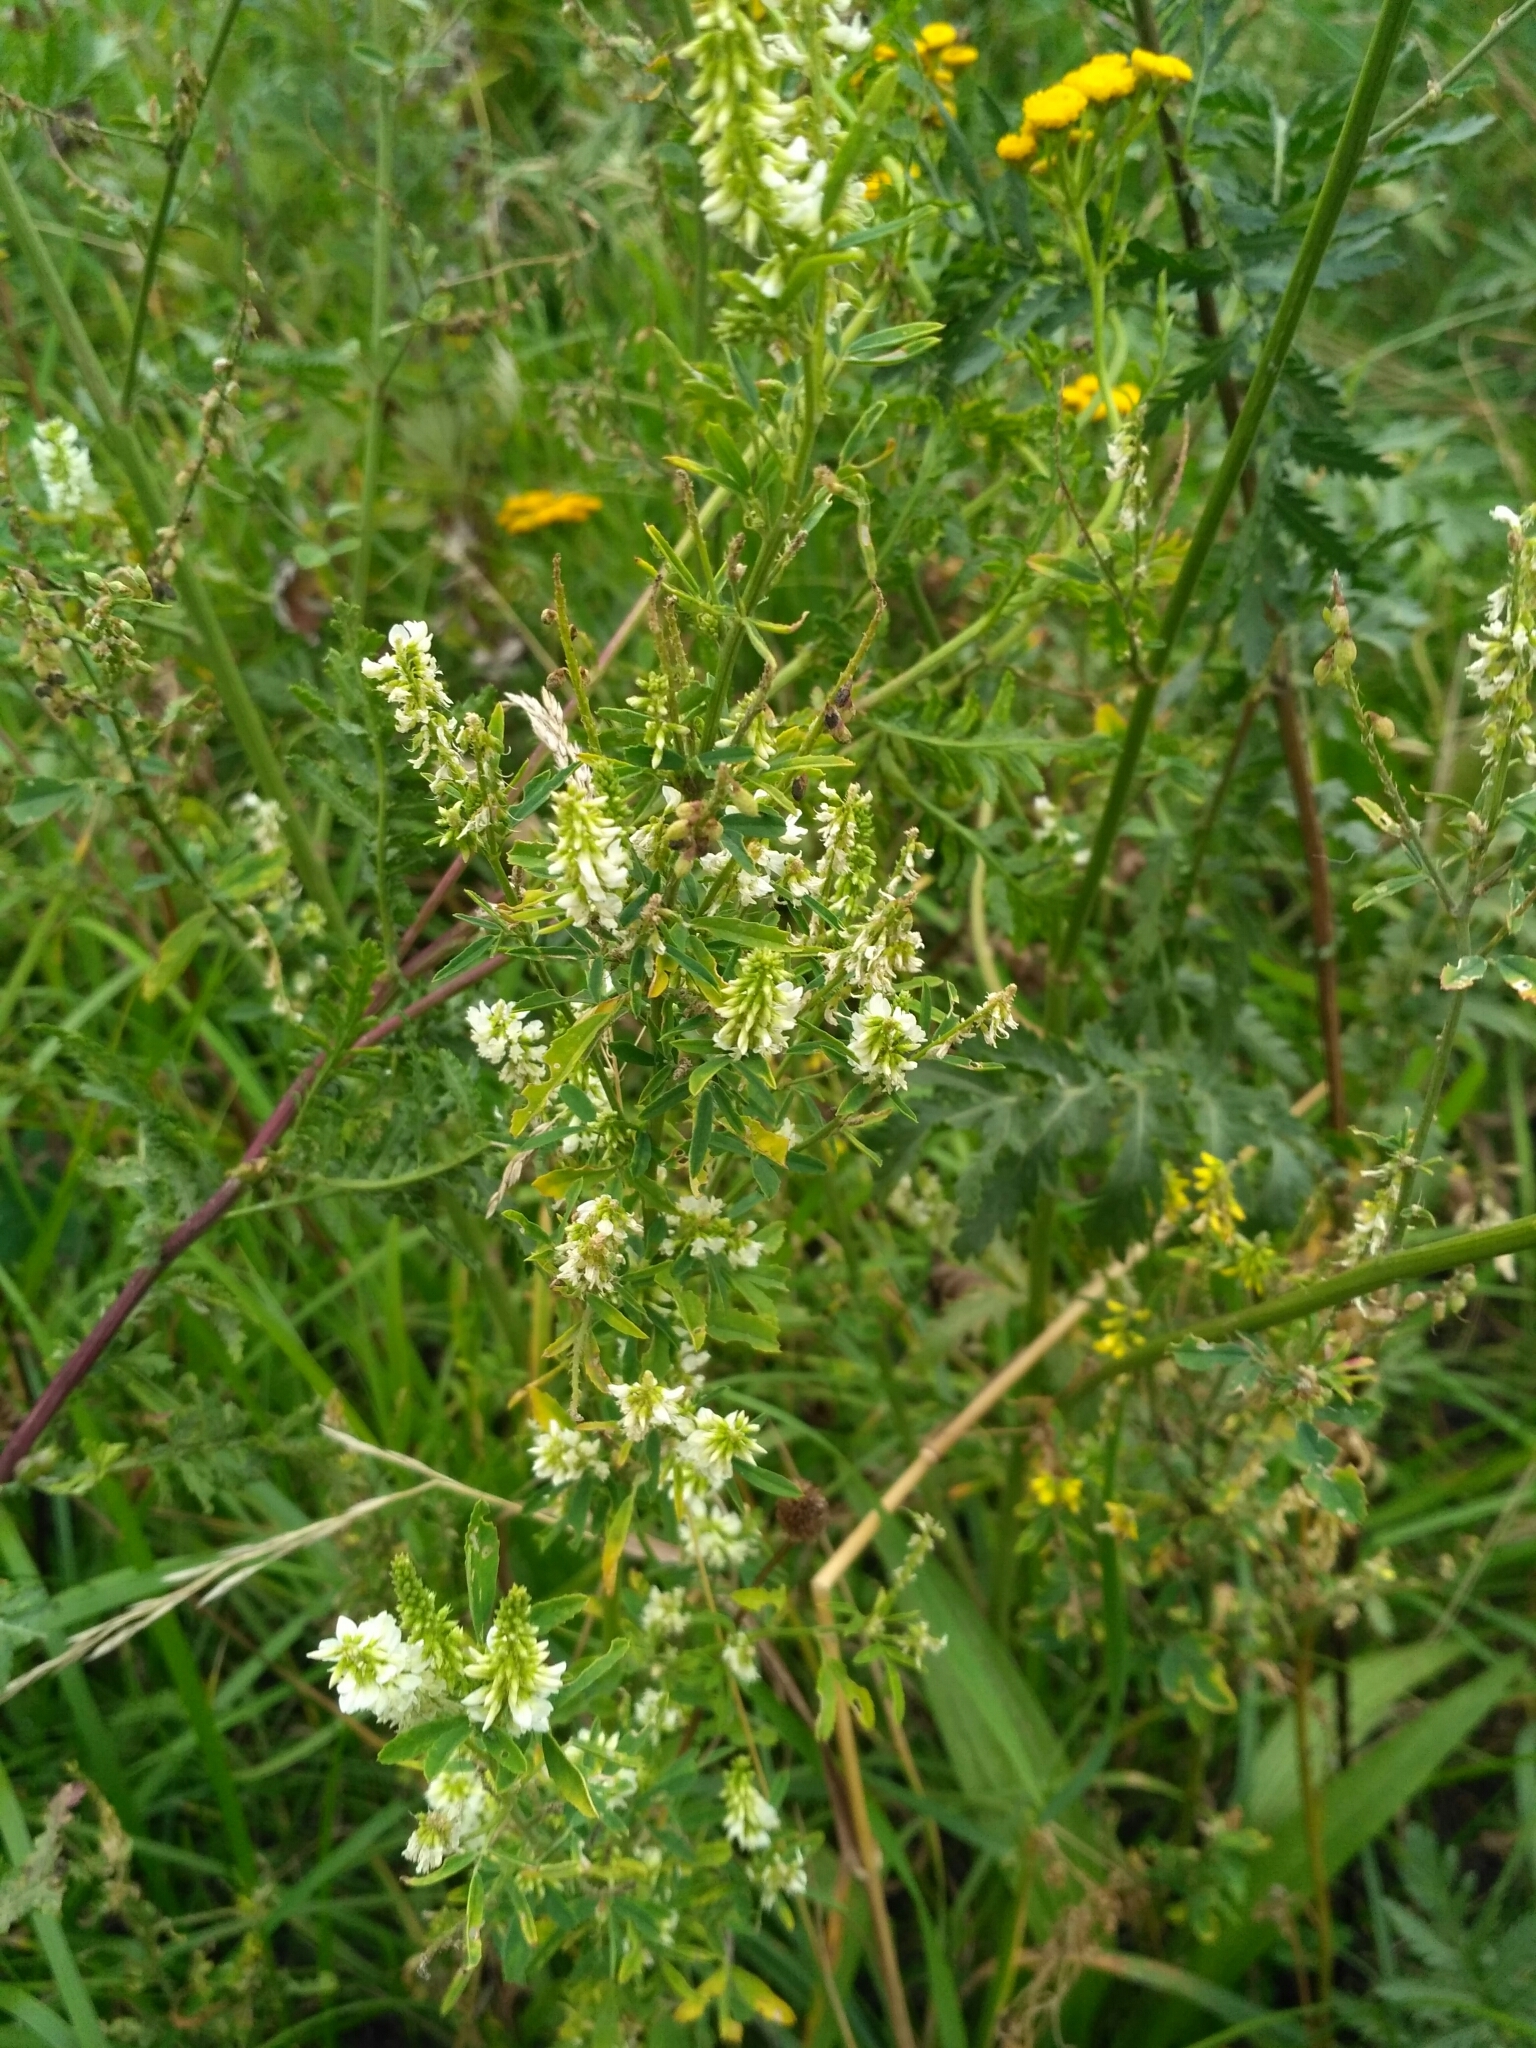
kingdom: Plantae
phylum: Tracheophyta
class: Magnoliopsida
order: Fabales
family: Fabaceae
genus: Melilotus
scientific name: Melilotus albus
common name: White melilot
